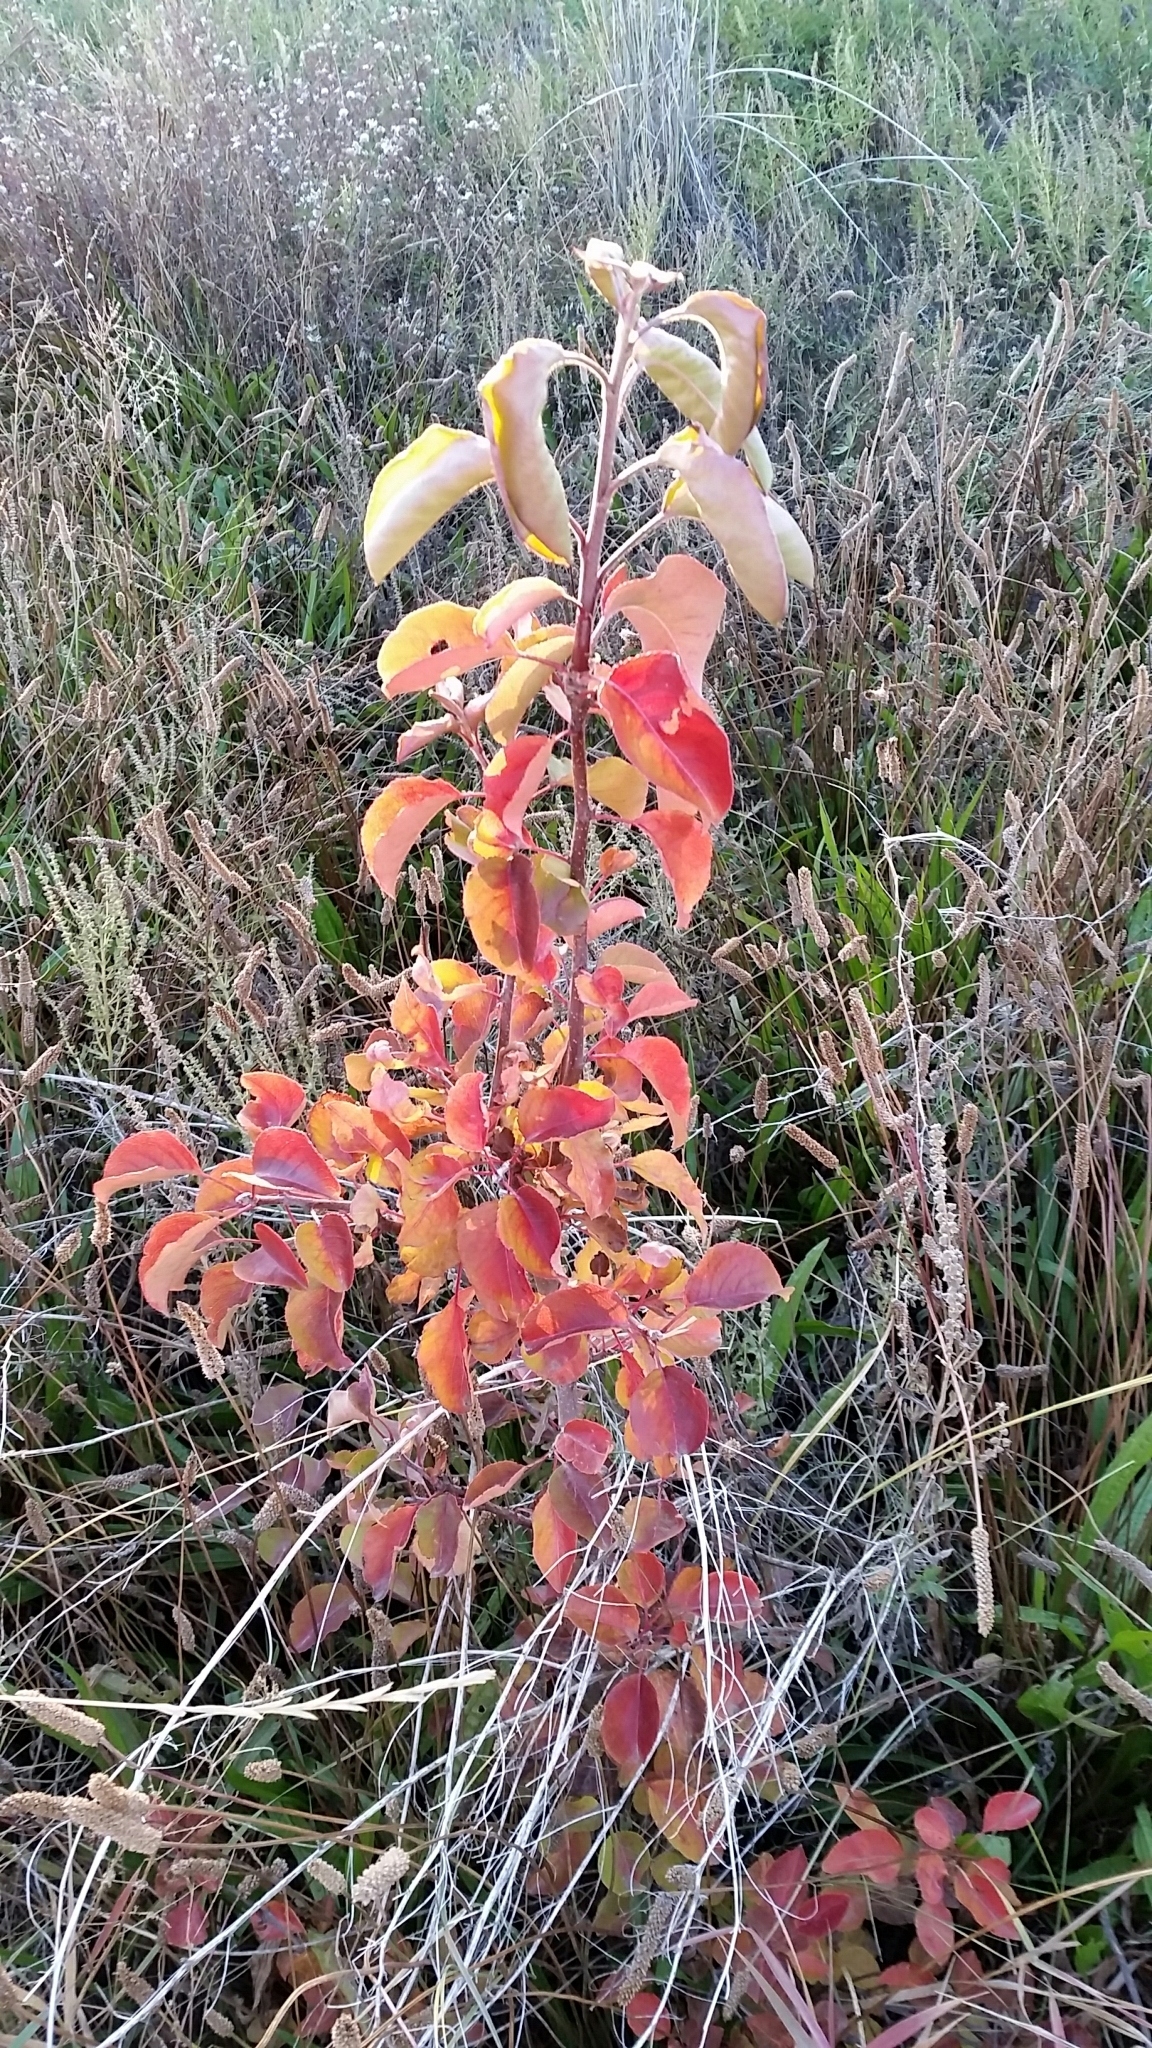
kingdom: Plantae
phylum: Tracheophyta
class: Magnoliopsida
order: Rosales
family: Rosaceae
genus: Pyrus
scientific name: Pyrus calleryana
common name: Callery pear
